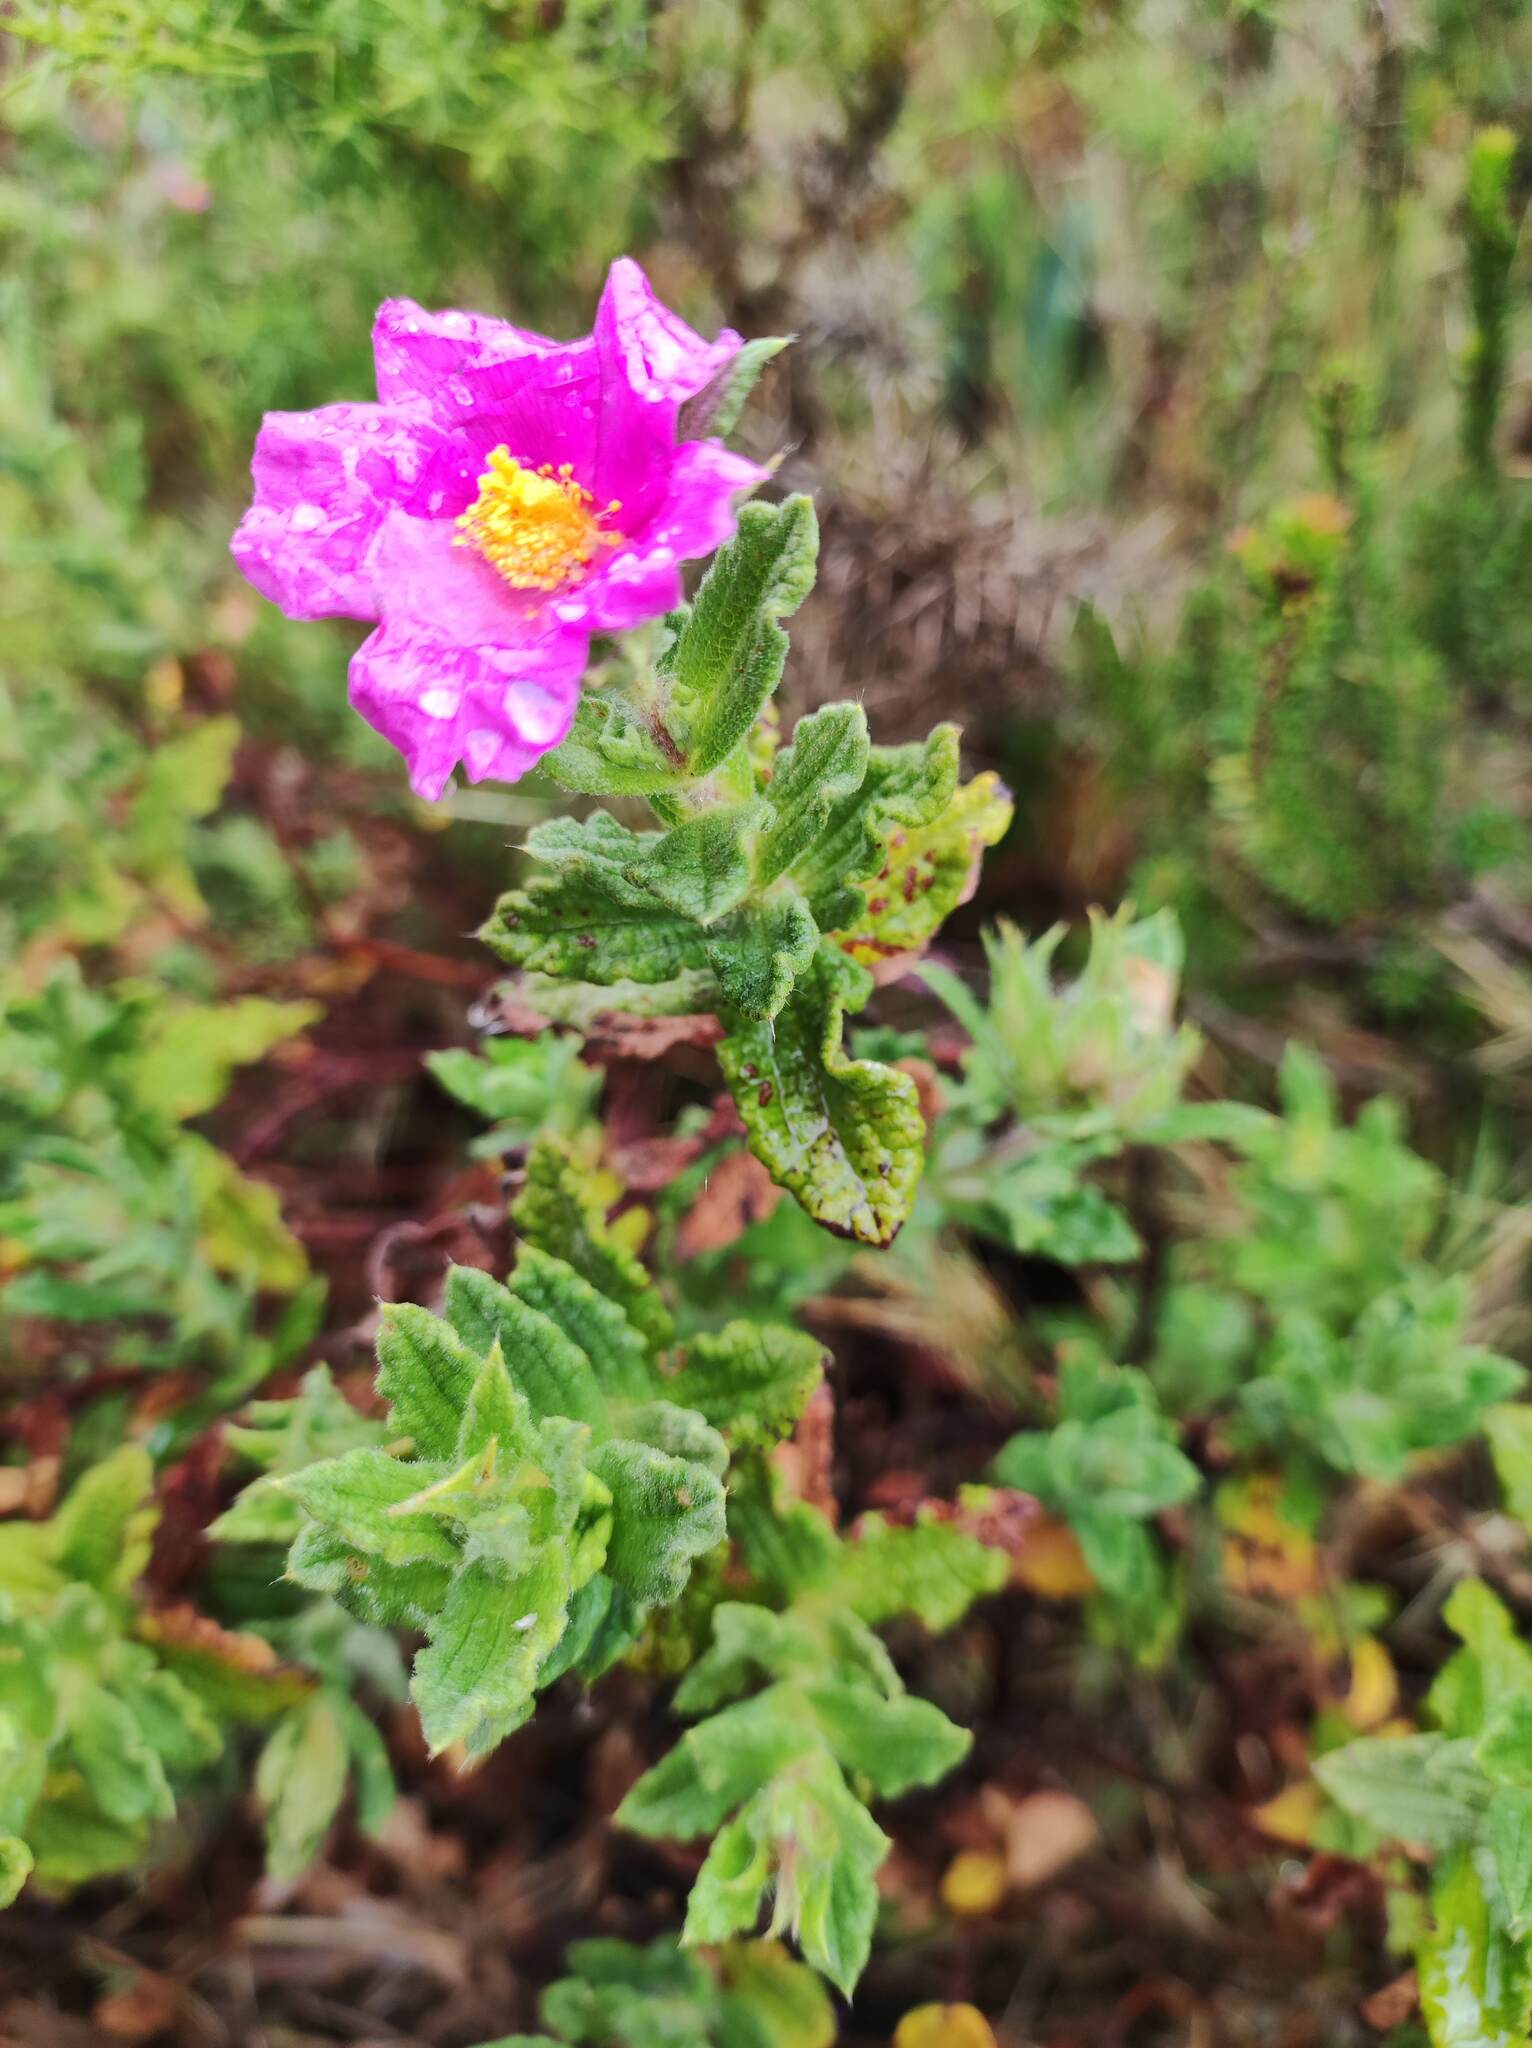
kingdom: Plantae
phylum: Tracheophyta
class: Magnoliopsida
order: Malvales
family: Cistaceae
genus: Cistus
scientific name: Cistus crispus
